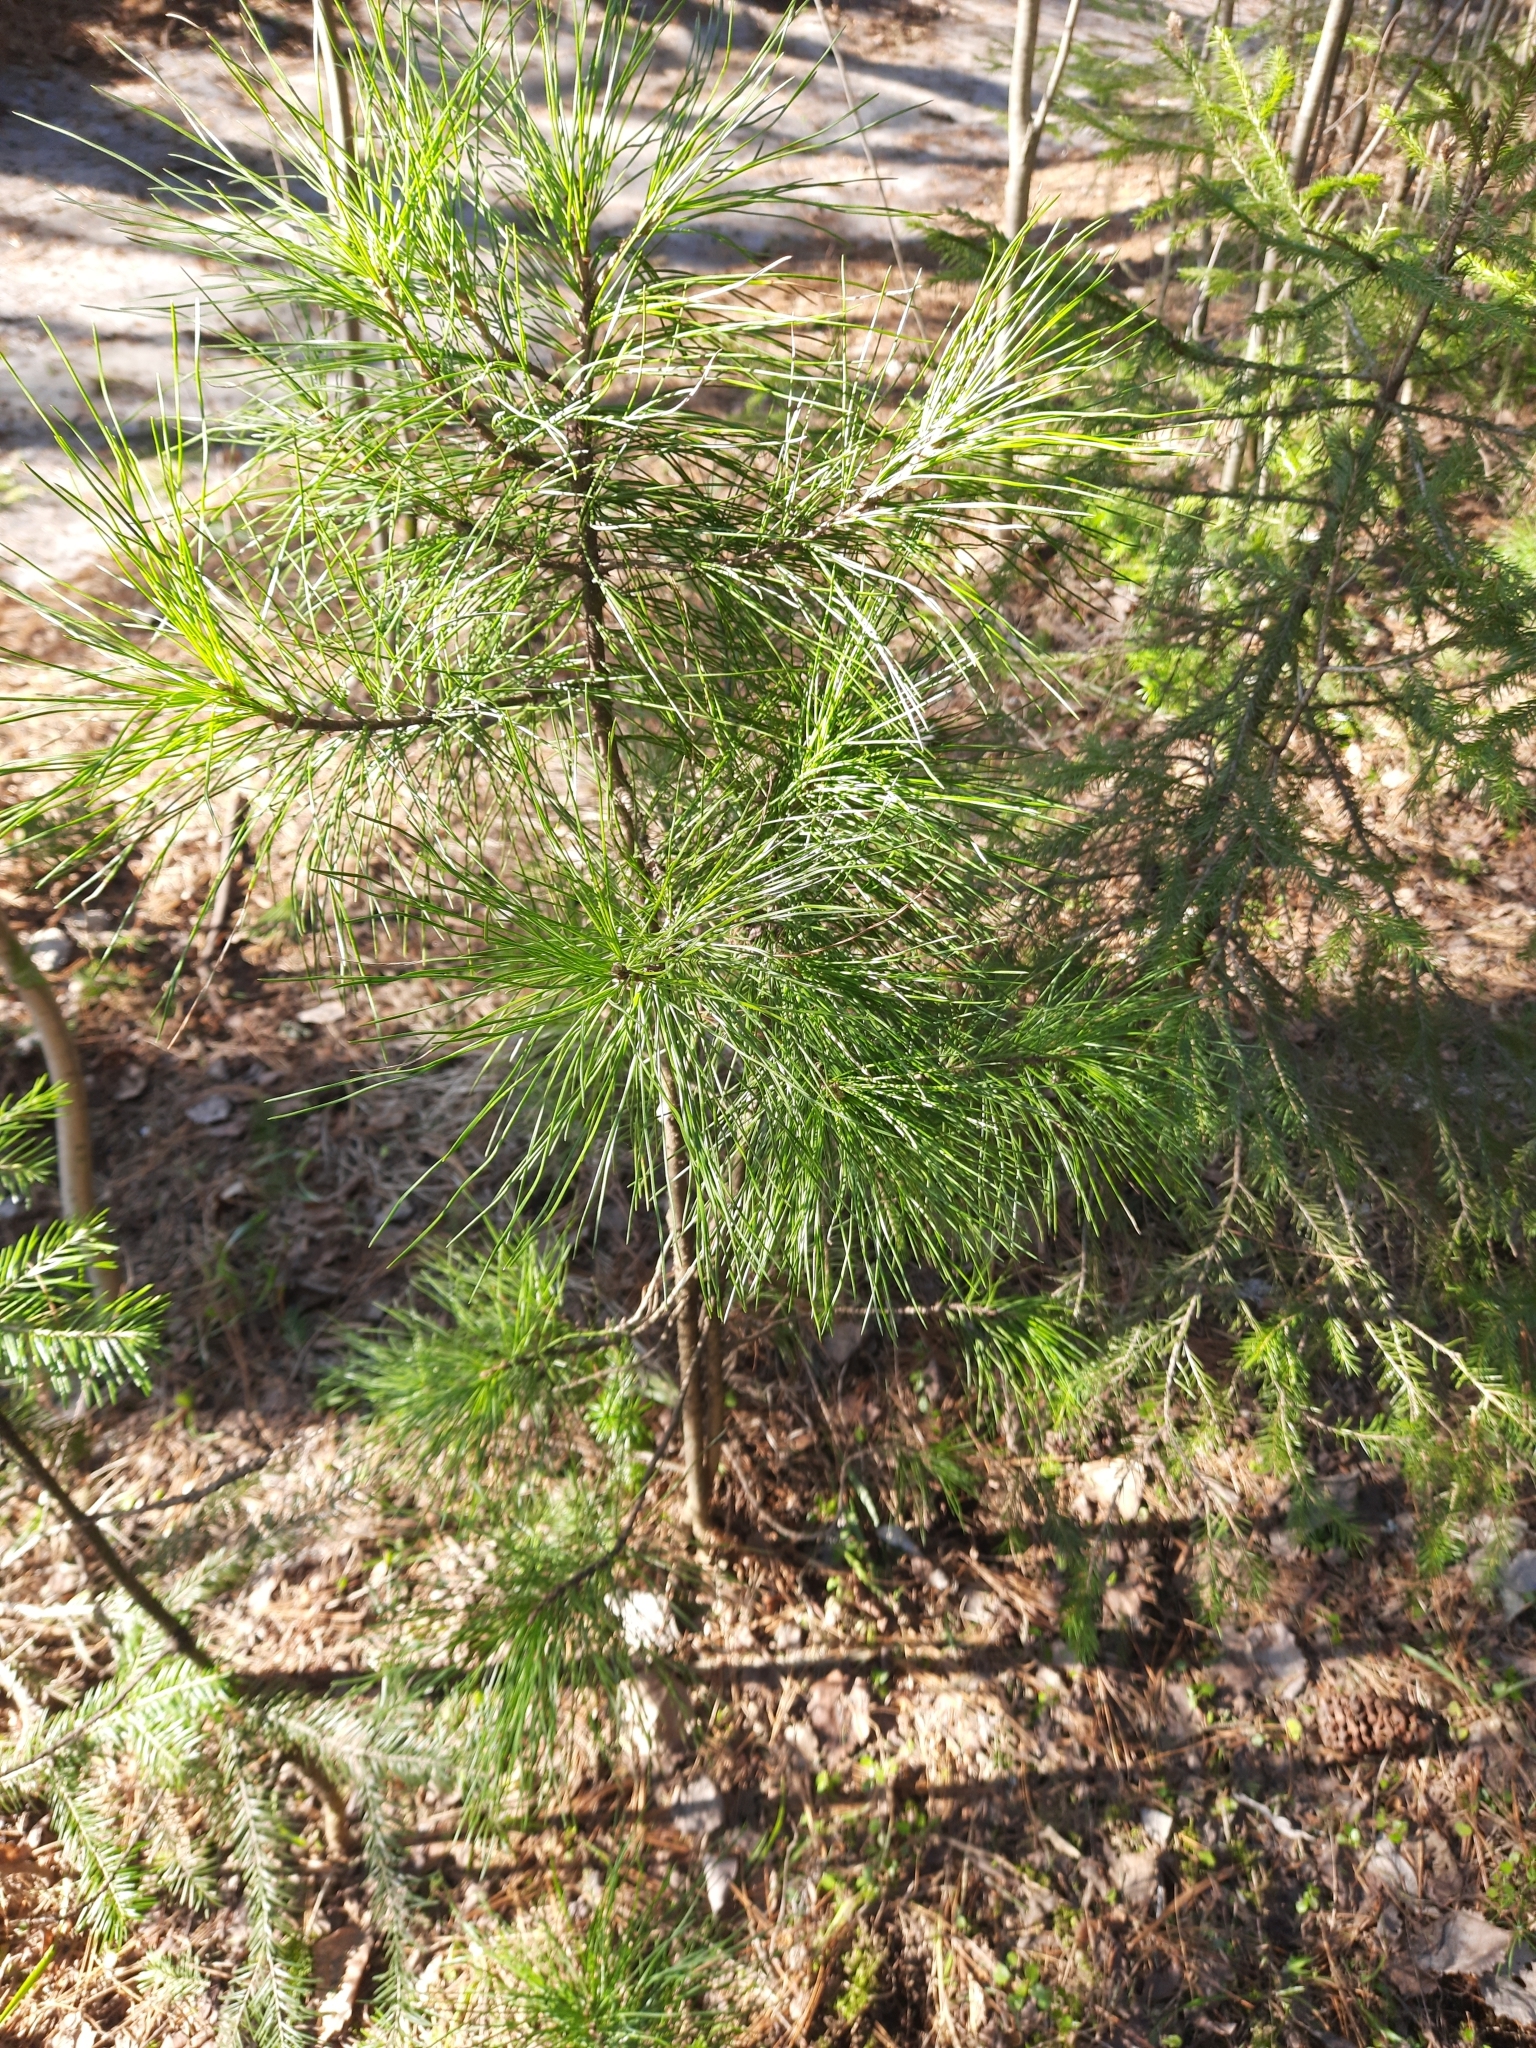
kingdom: Plantae
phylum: Tracheophyta
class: Pinopsida
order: Pinales
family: Pinaceae
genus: Pinus
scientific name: Pinus sibirica
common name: Siberian pine
